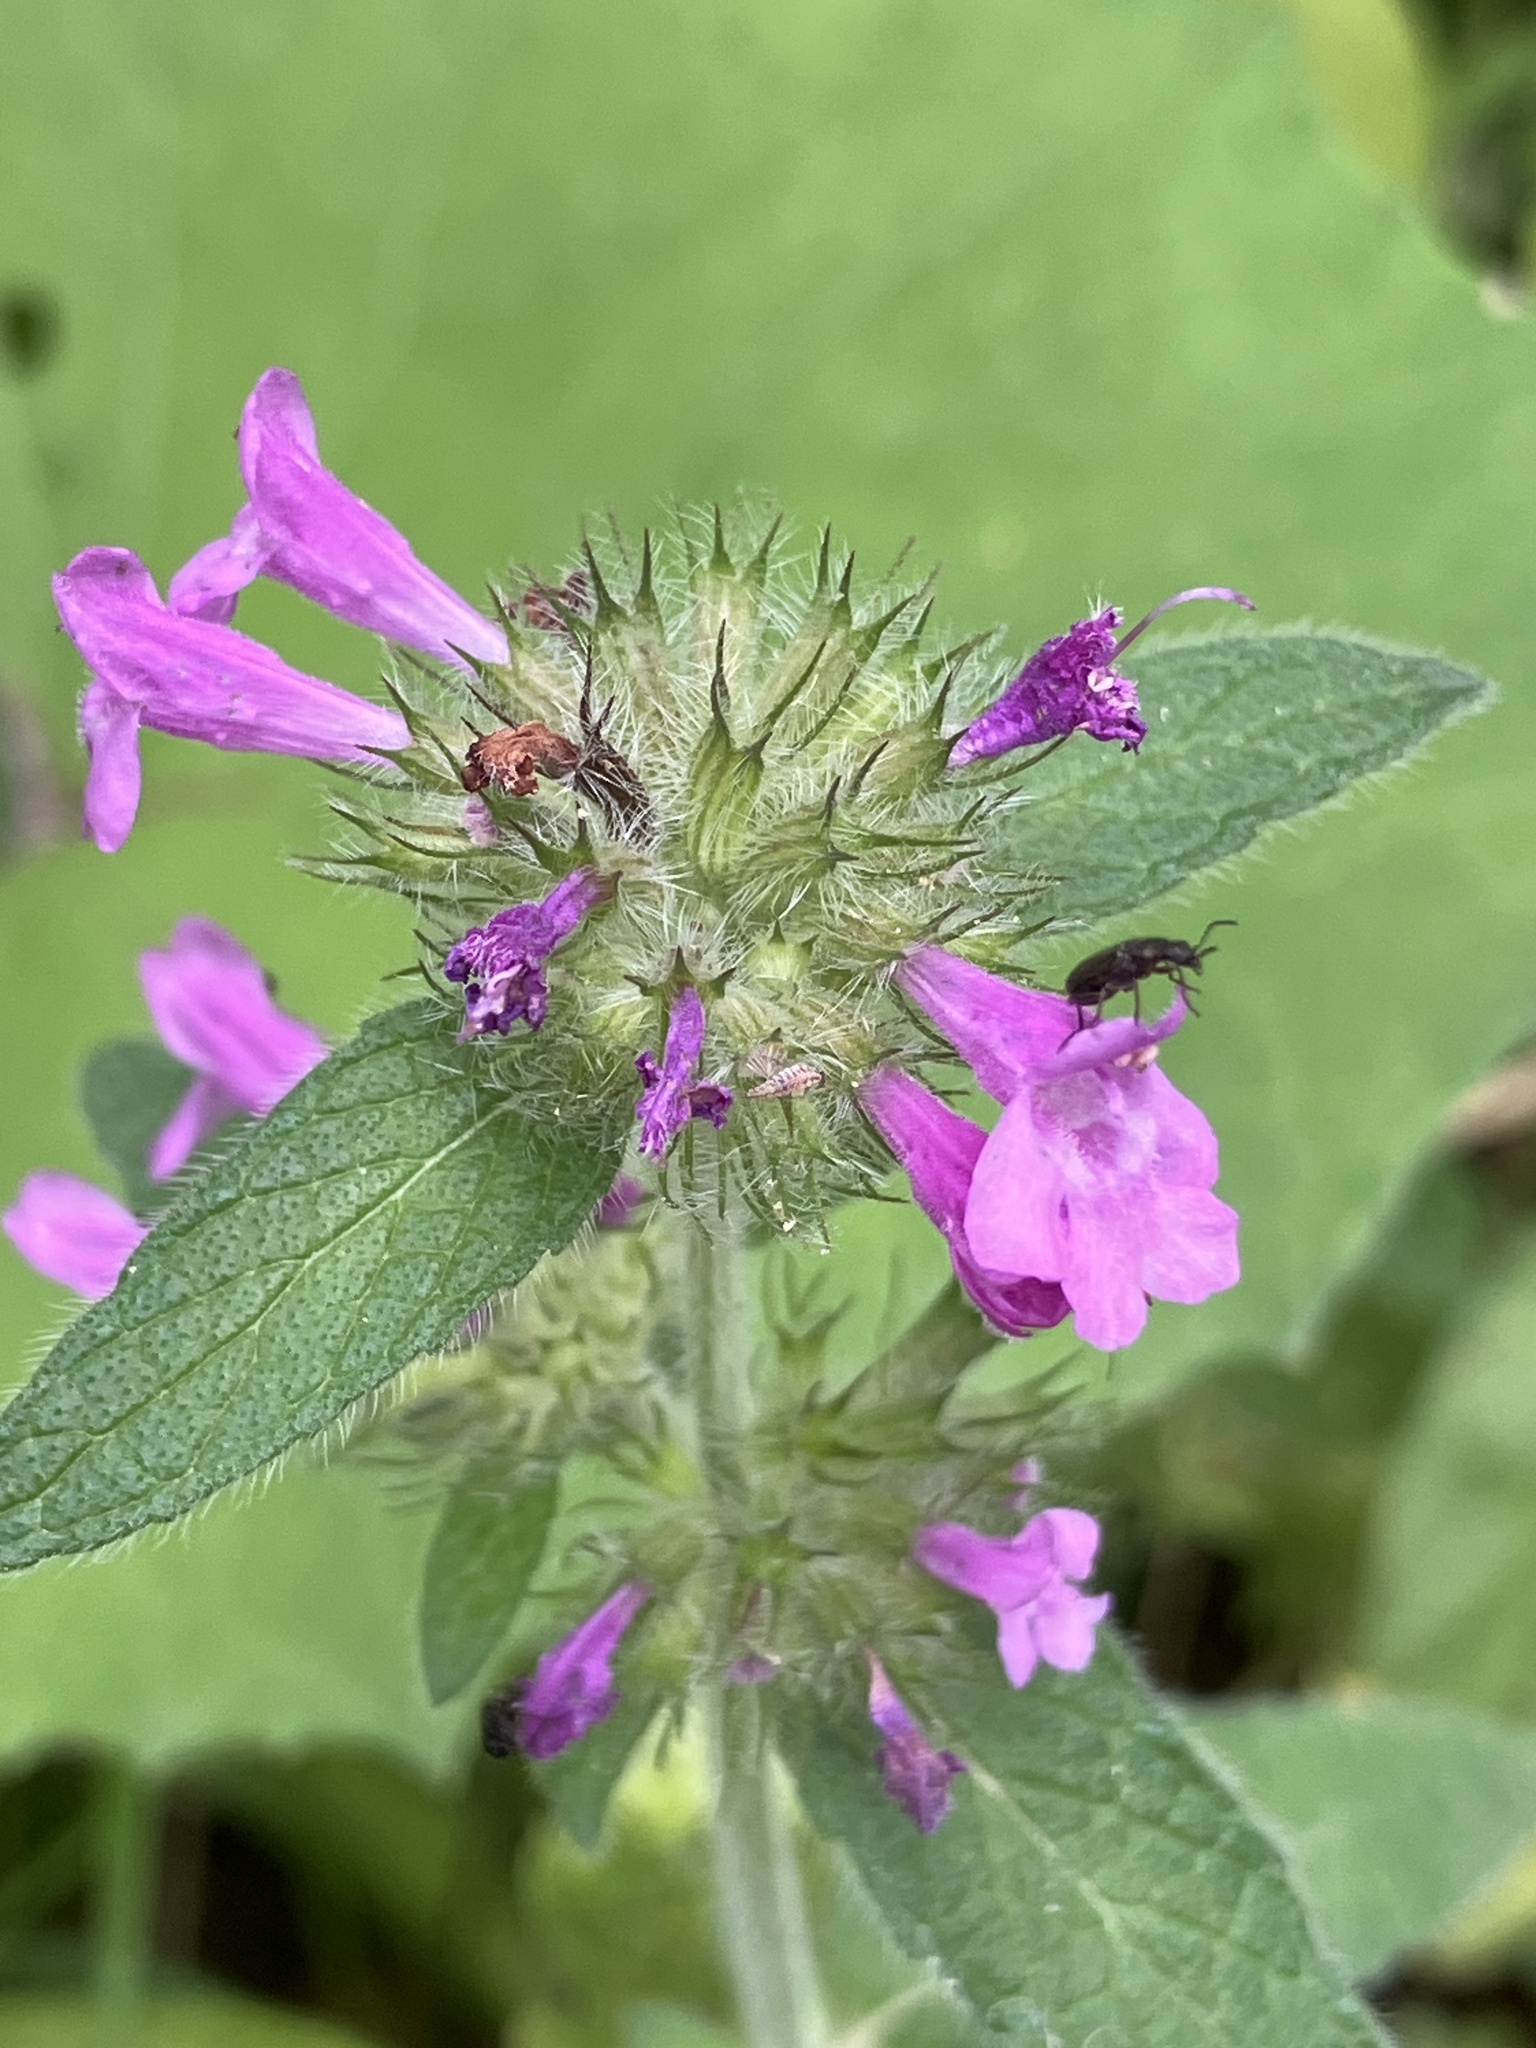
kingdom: Plantae
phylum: Tracheophyta
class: Magnoliopsida
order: Lamiales
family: Lamiaceae
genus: Clinopodium
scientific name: Clinopodium vulgare
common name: Wild basil
